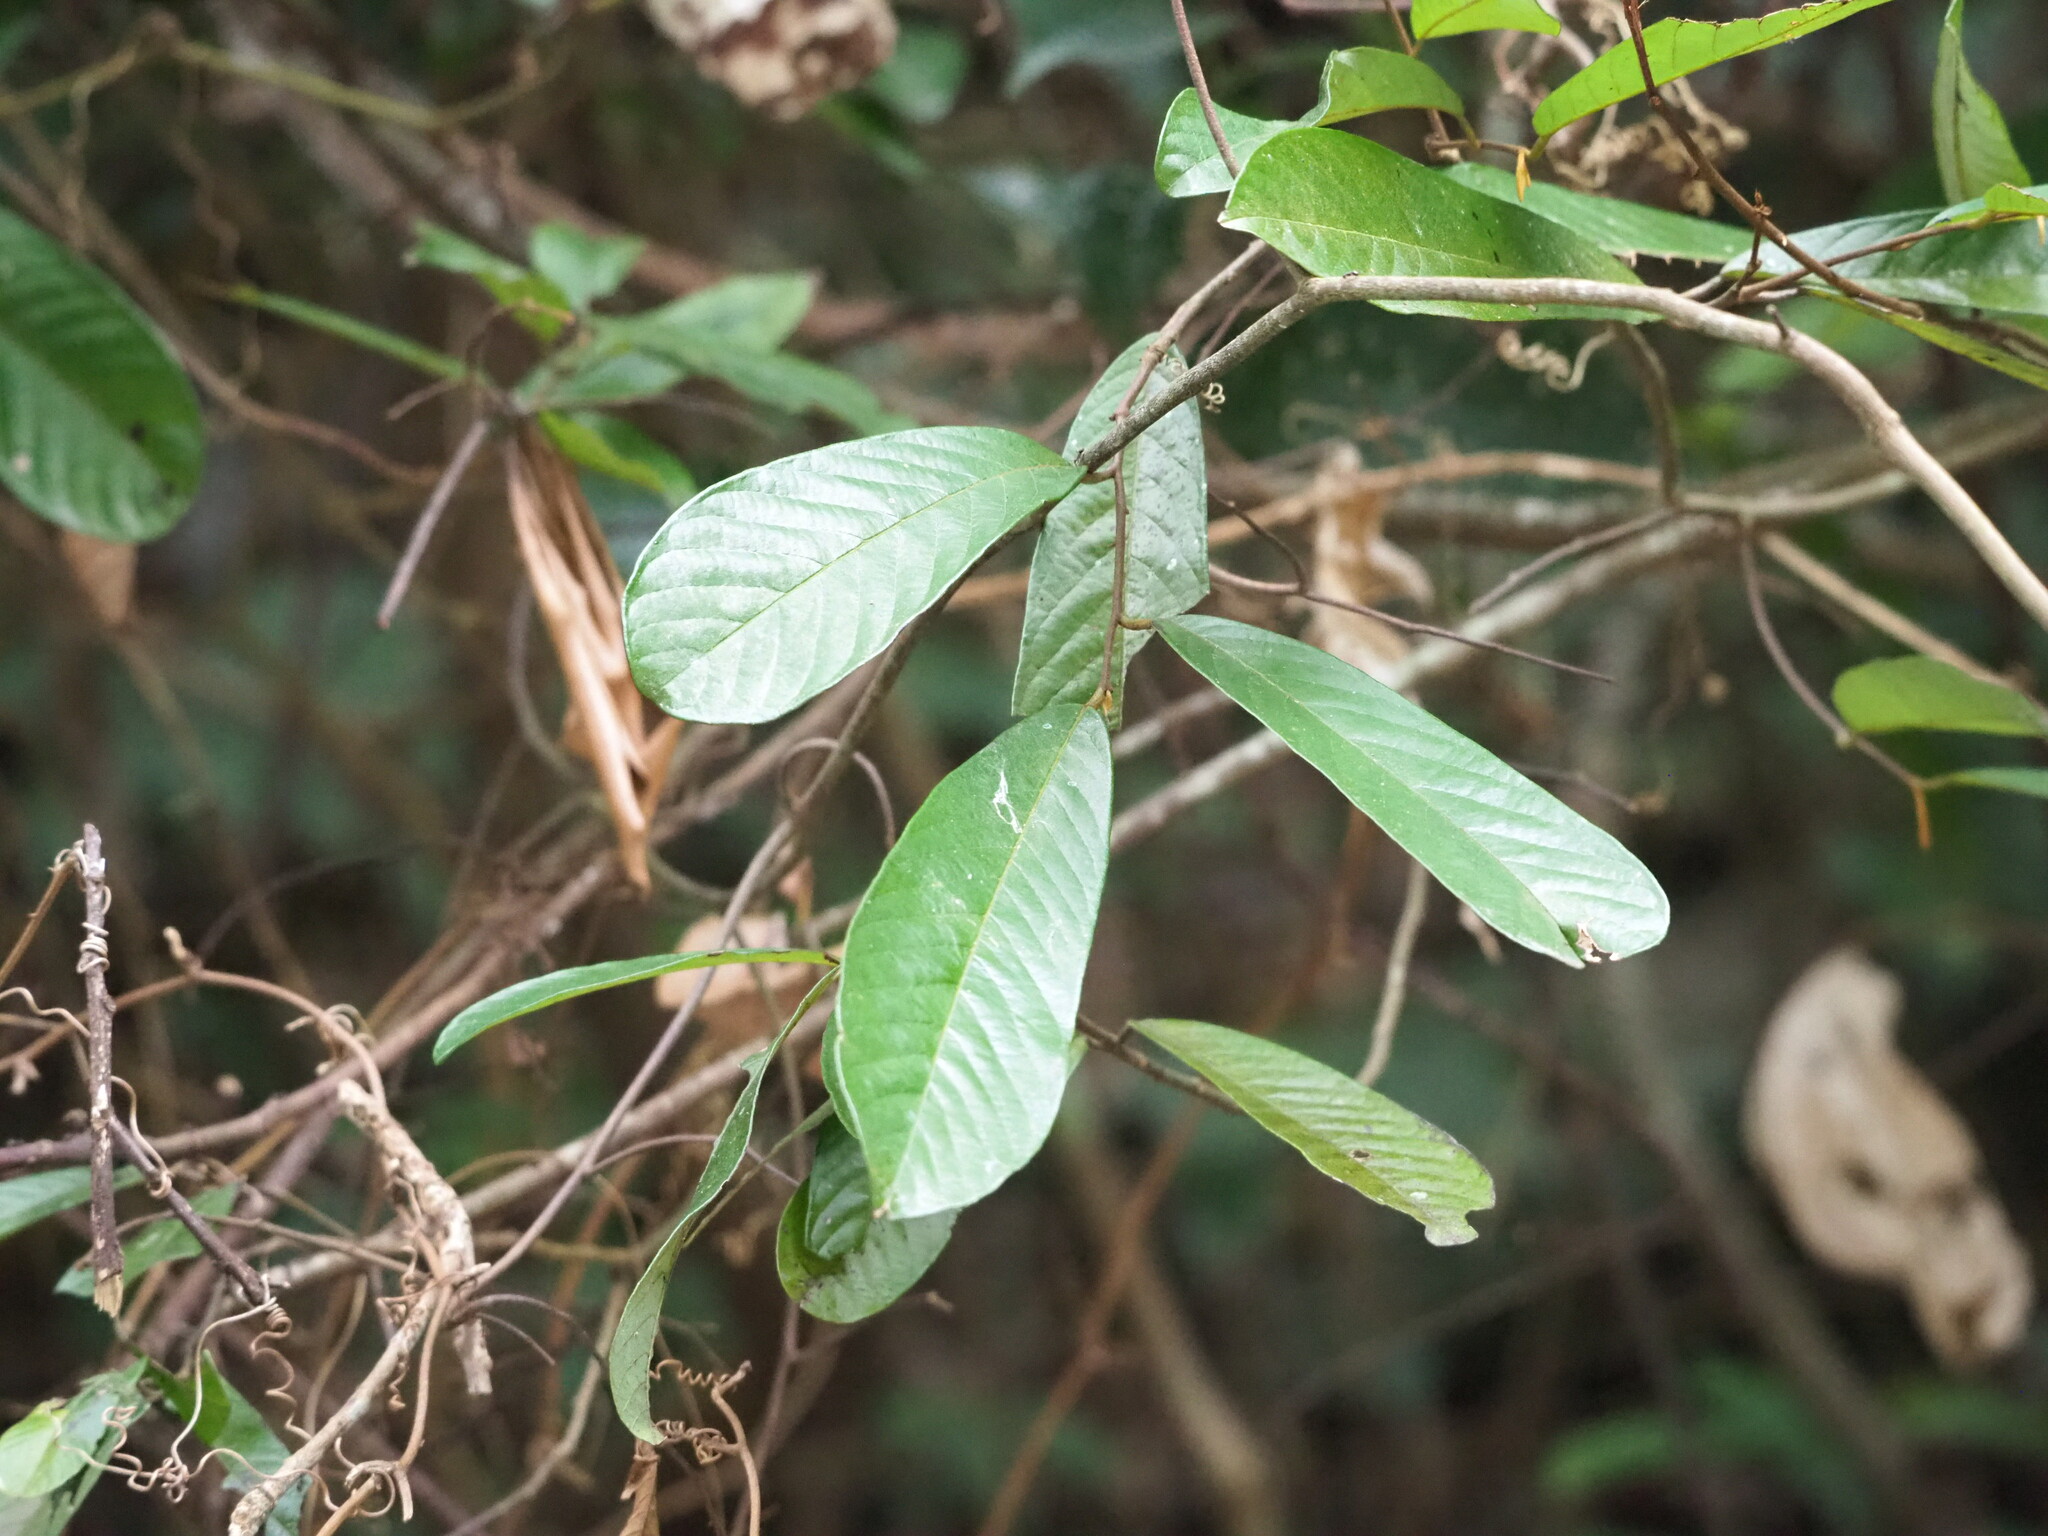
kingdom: Plantae
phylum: Tracheophyta
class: Magnoliopsida
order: Magnoliales
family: Annonaceae
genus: Fissistigma
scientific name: Fissistigma oldhamii
